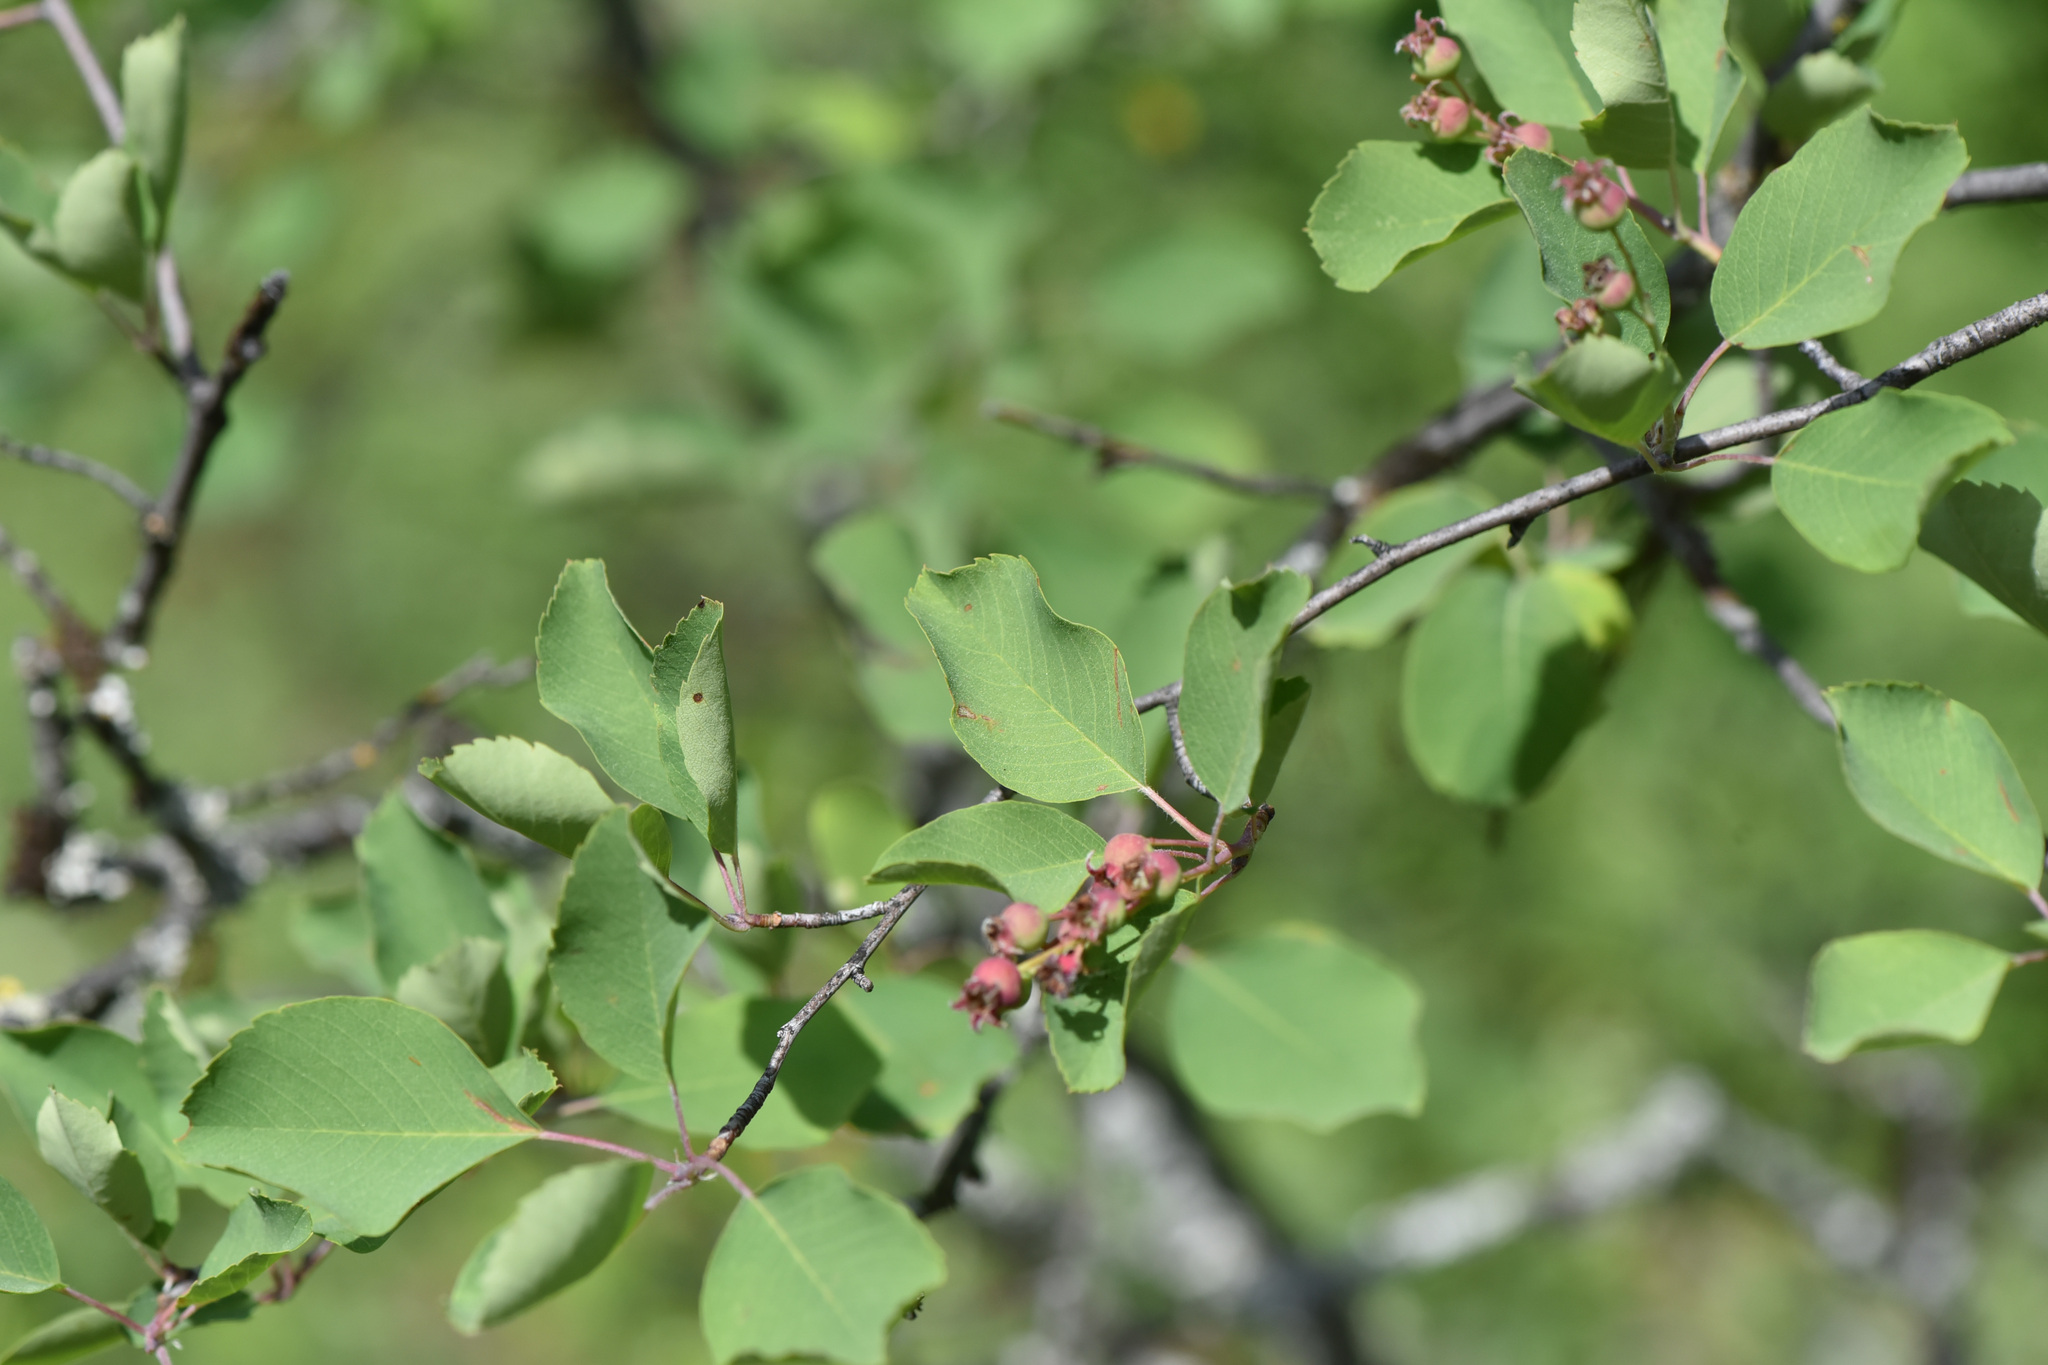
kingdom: Plantae
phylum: Tracheophyta
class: Magnoliopsida
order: Rosales
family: Rosaceae
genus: Amelanchier
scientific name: Amelanchier alnifolia
